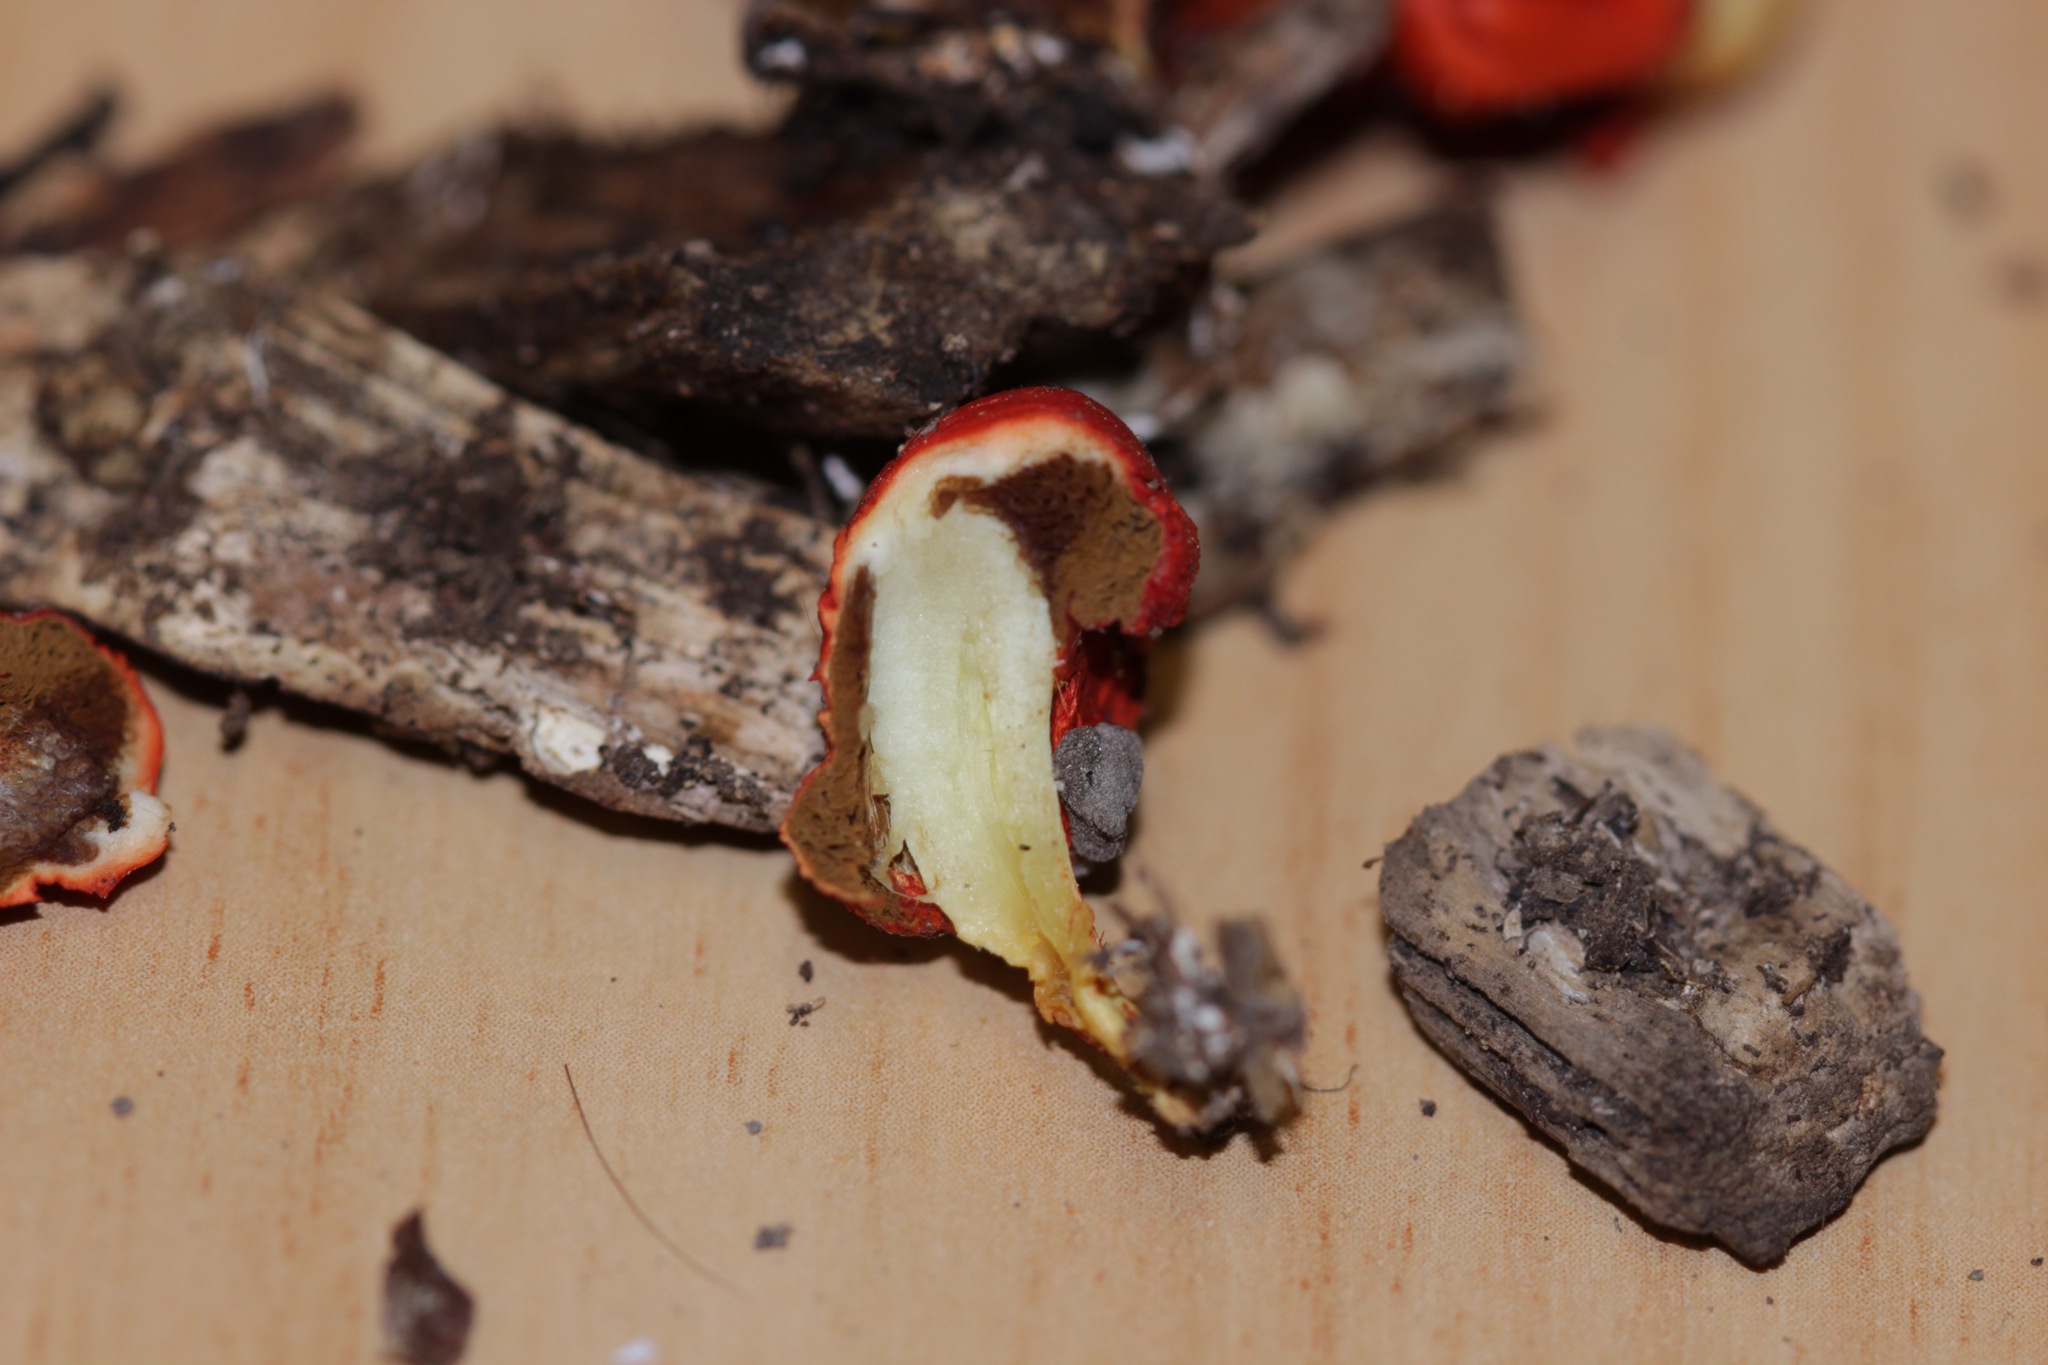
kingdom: Fungi
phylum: Basidiomycota
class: Agaricomycetes
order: Agaricales
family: Strophariaceae
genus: Leratiomyces
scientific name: Leratiomyces erythrocephalus
